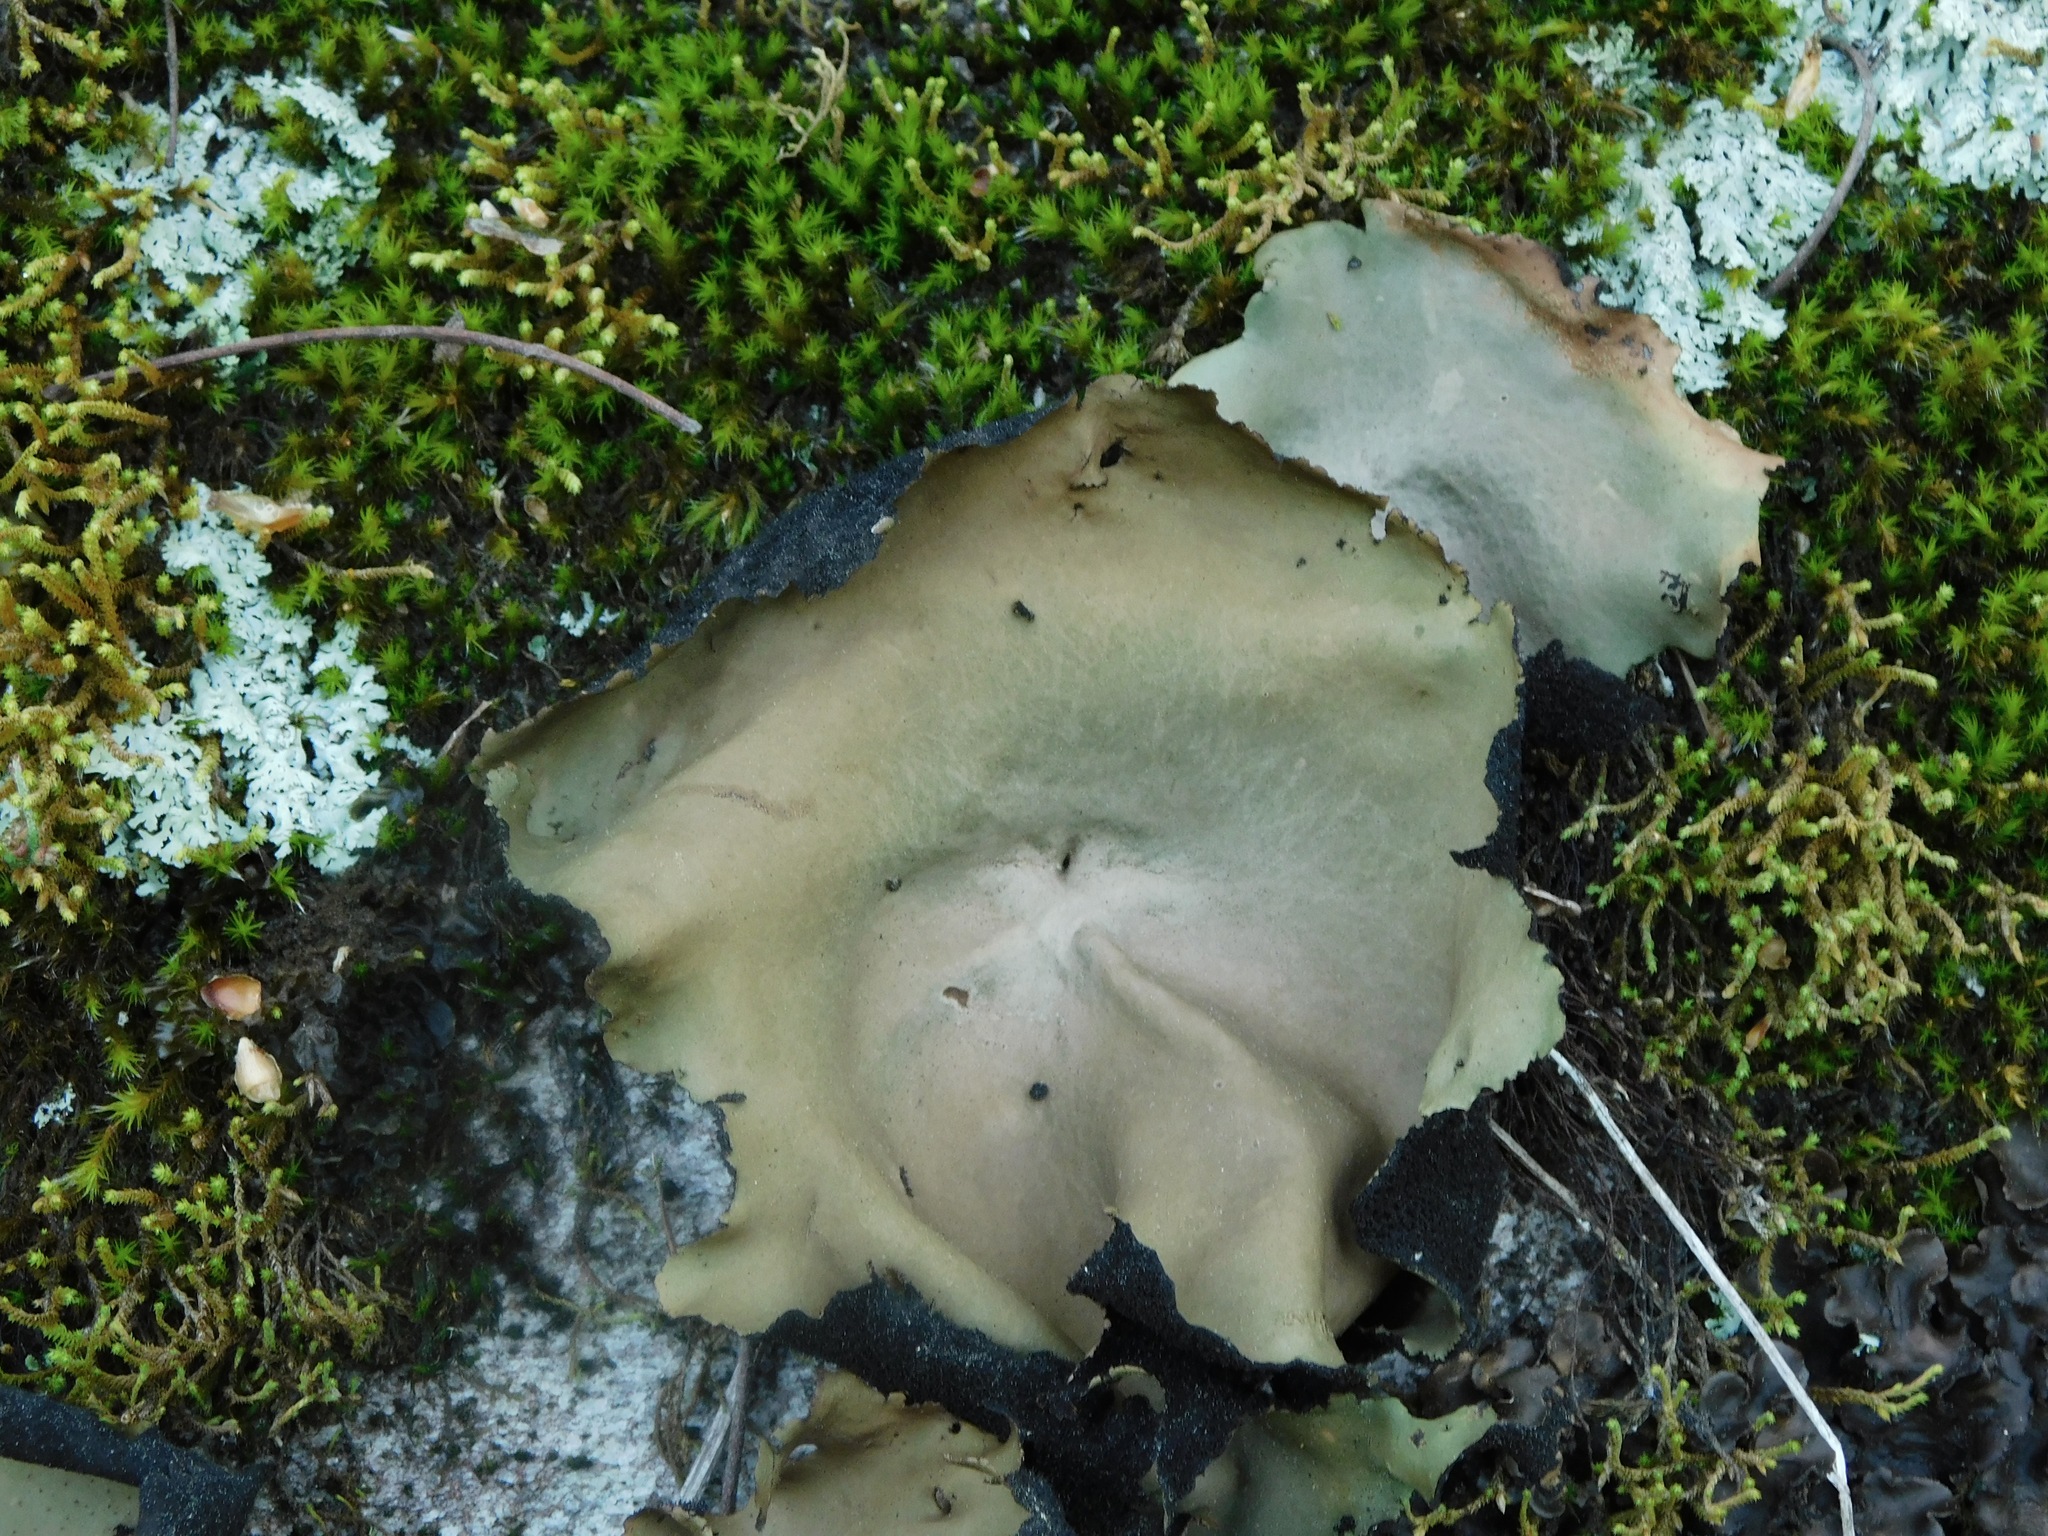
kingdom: Fungi
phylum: Ascomycota
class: Lecanoromycetes
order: Umbilicariales
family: Umbilicariaceae
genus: Umbilicaria
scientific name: Umbilicaria mammulata
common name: Smooth rock tripe
